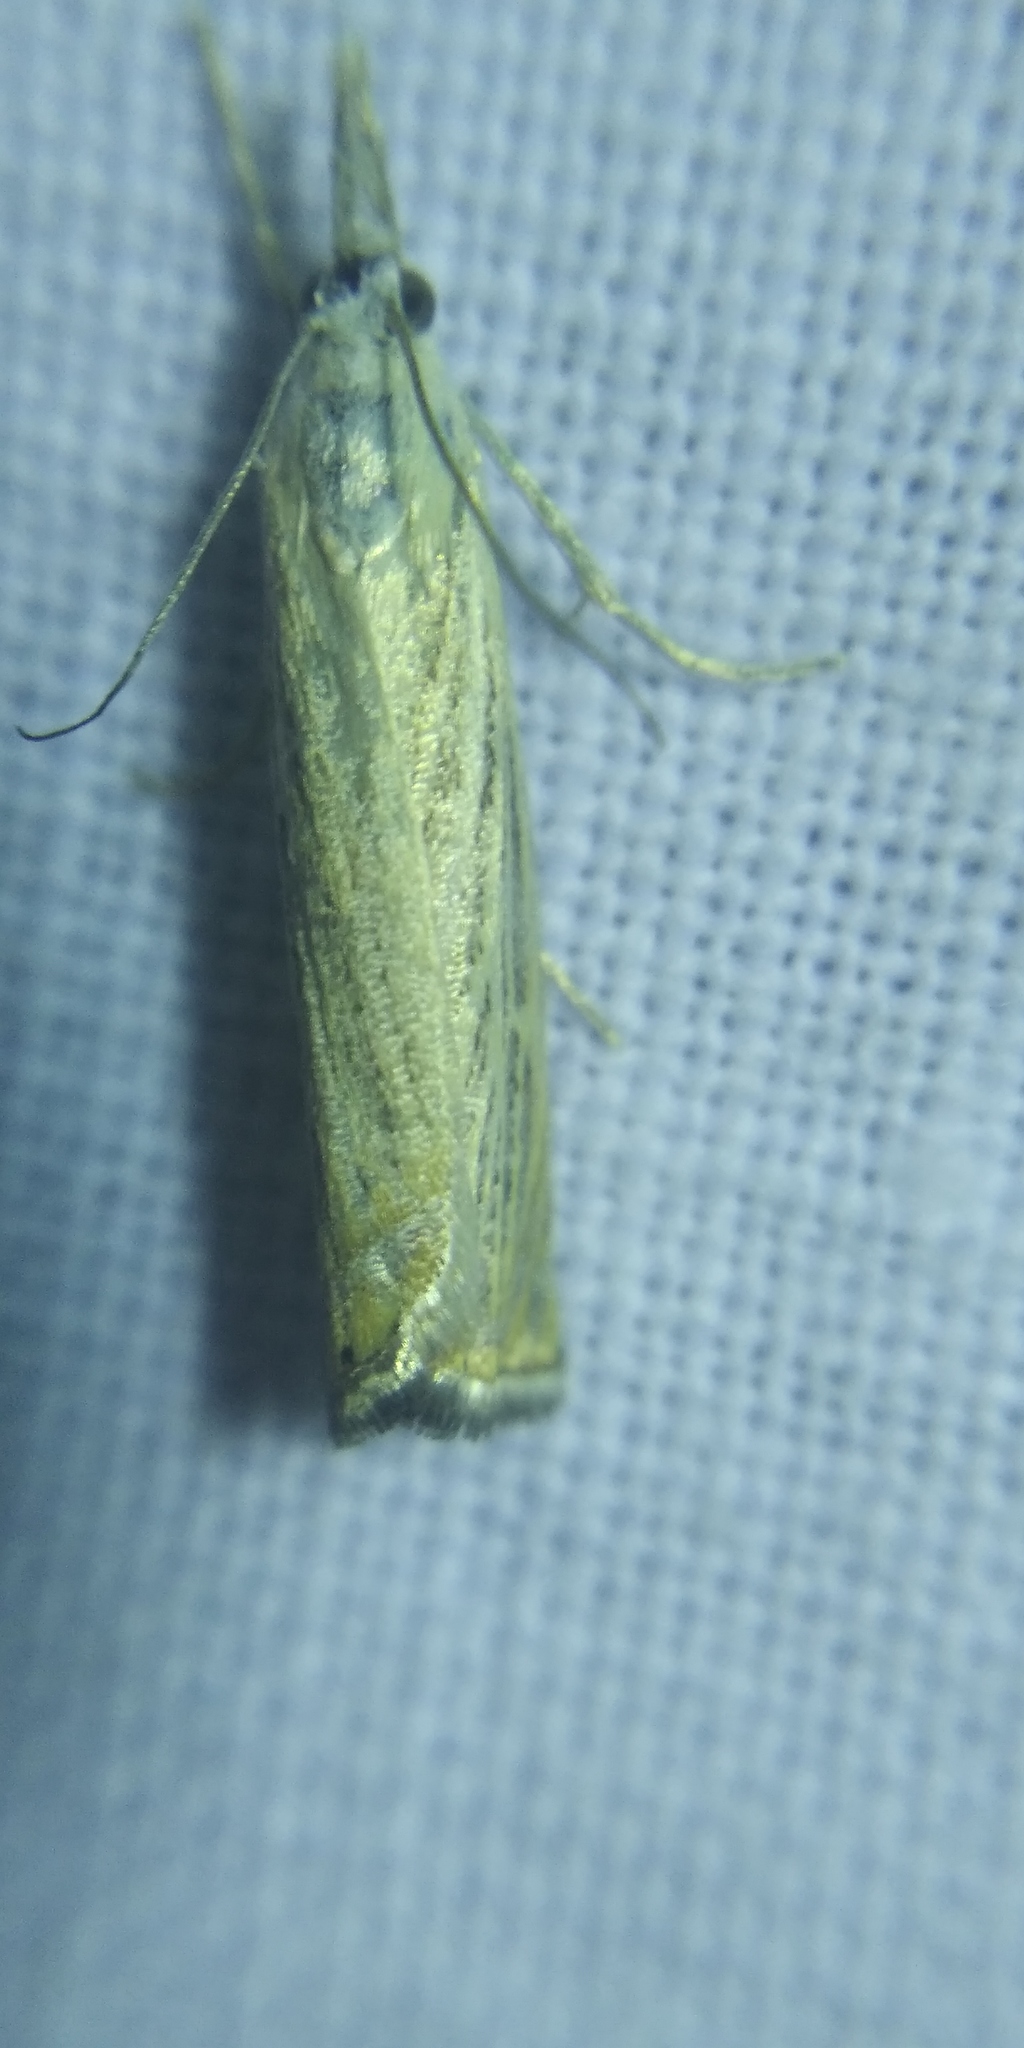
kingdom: Animalia
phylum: Arthropoda
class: Insecta
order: Lepidoptera
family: Crambidae
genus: Chrysoteuchia
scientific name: Chrysoteuchia culmella
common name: Garden grass-veneer
